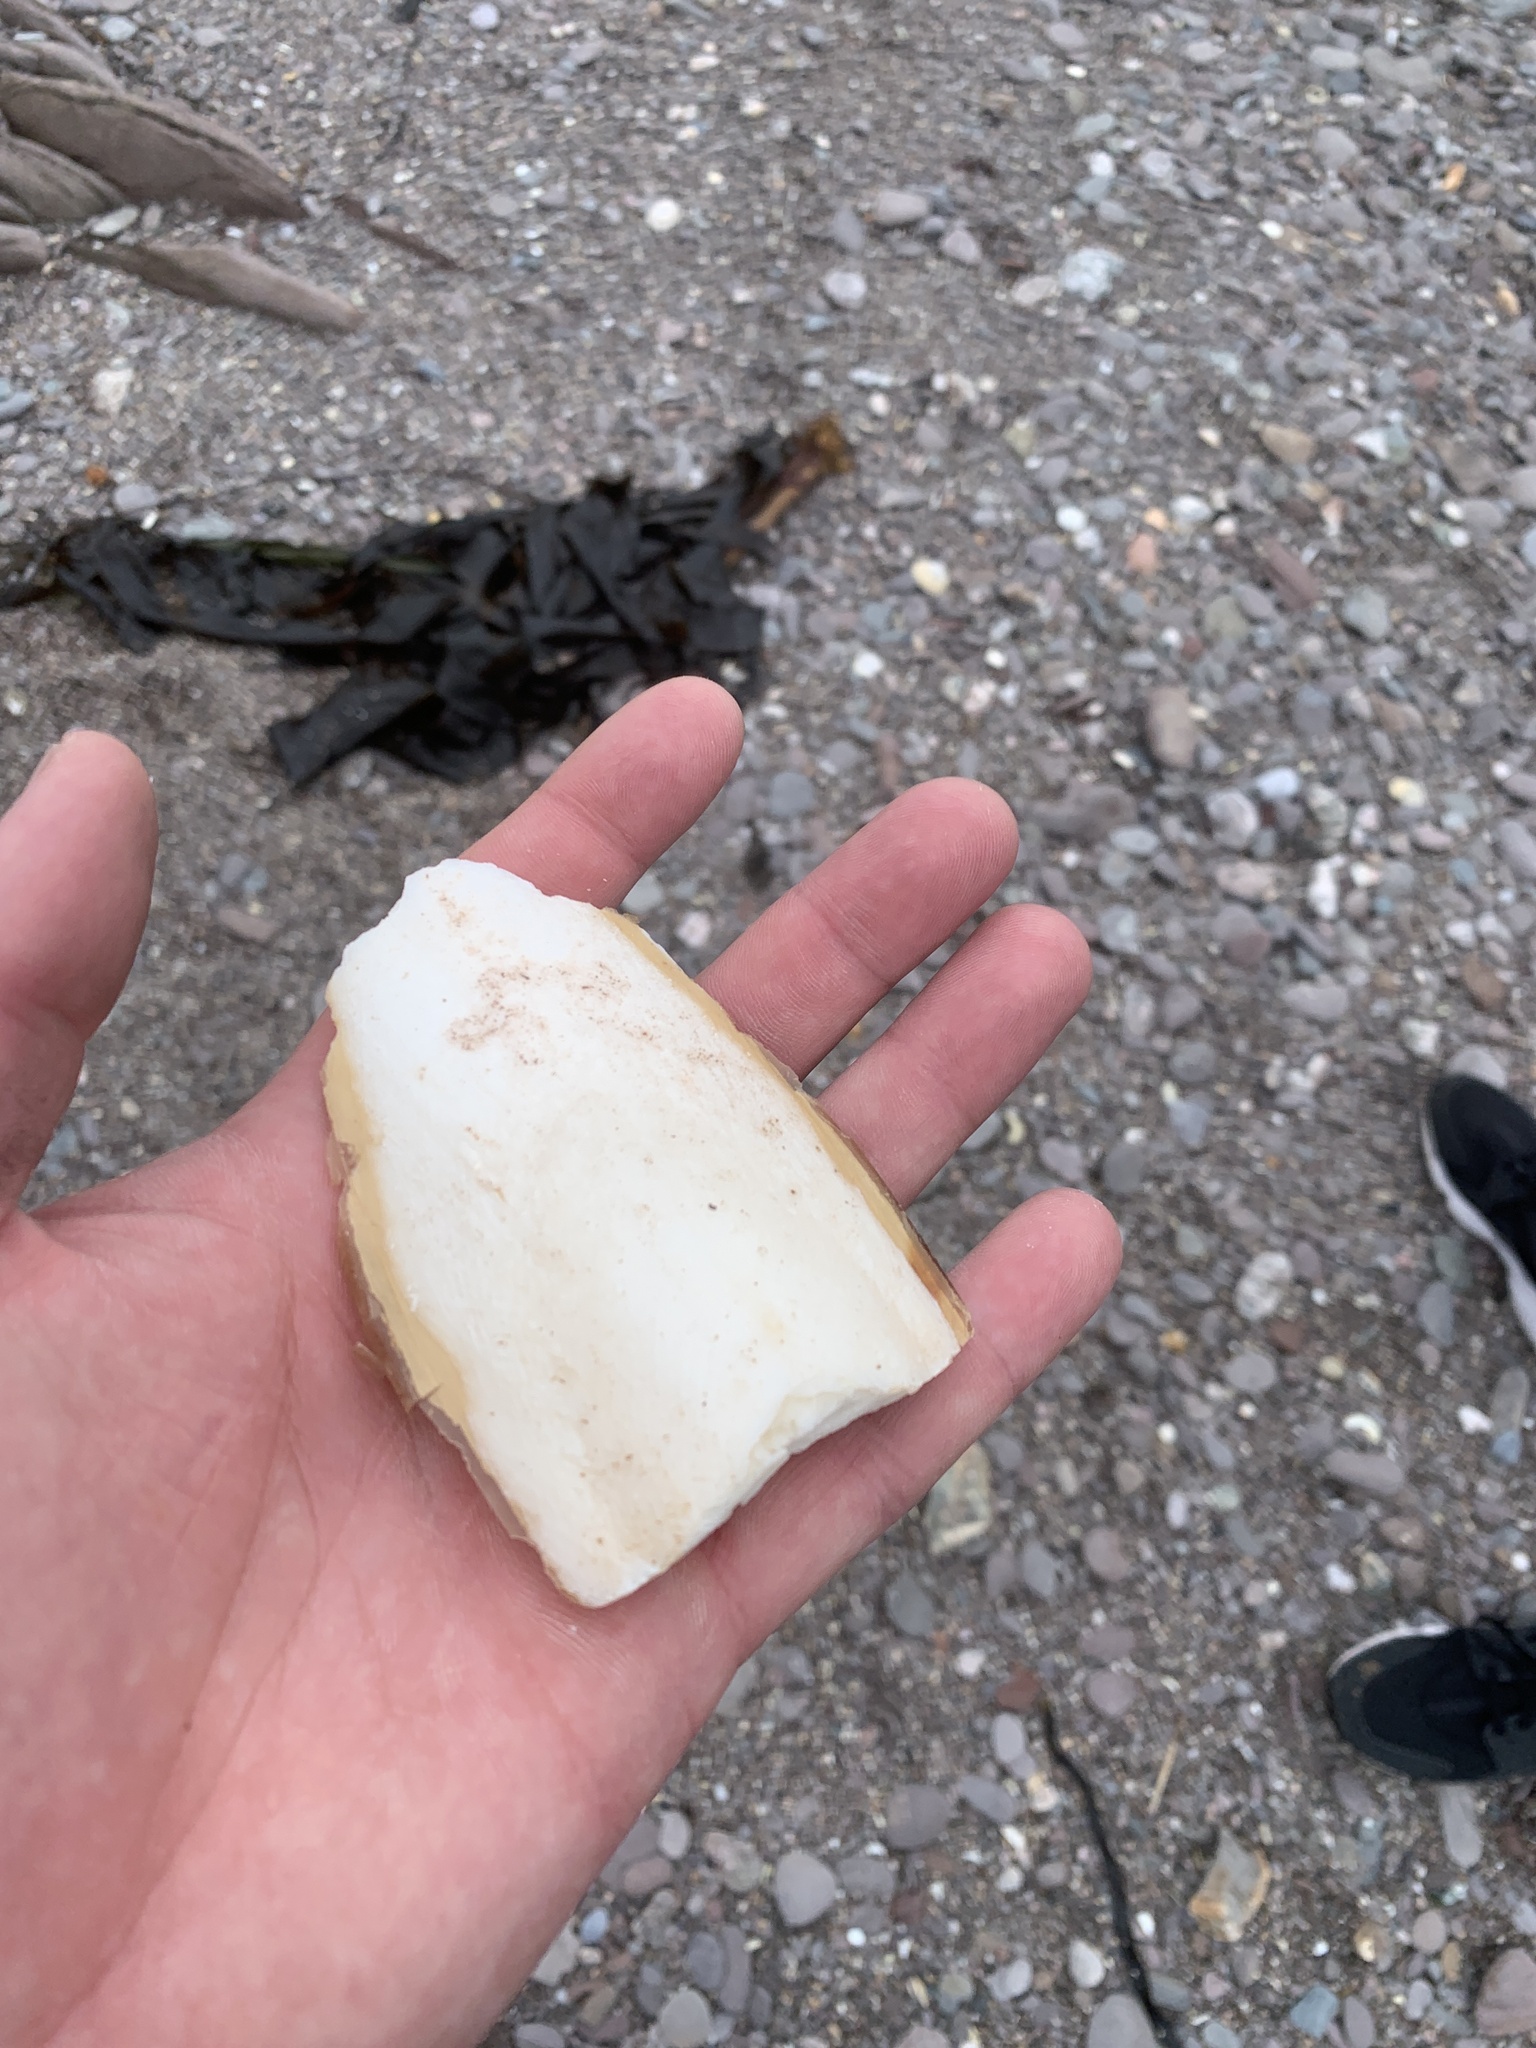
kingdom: Animalia
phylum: Mollusca
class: Cephalopoda
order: Sepiida
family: Sepiidae
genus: Sepia
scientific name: Sepia officinalis
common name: Common cuttlefish
